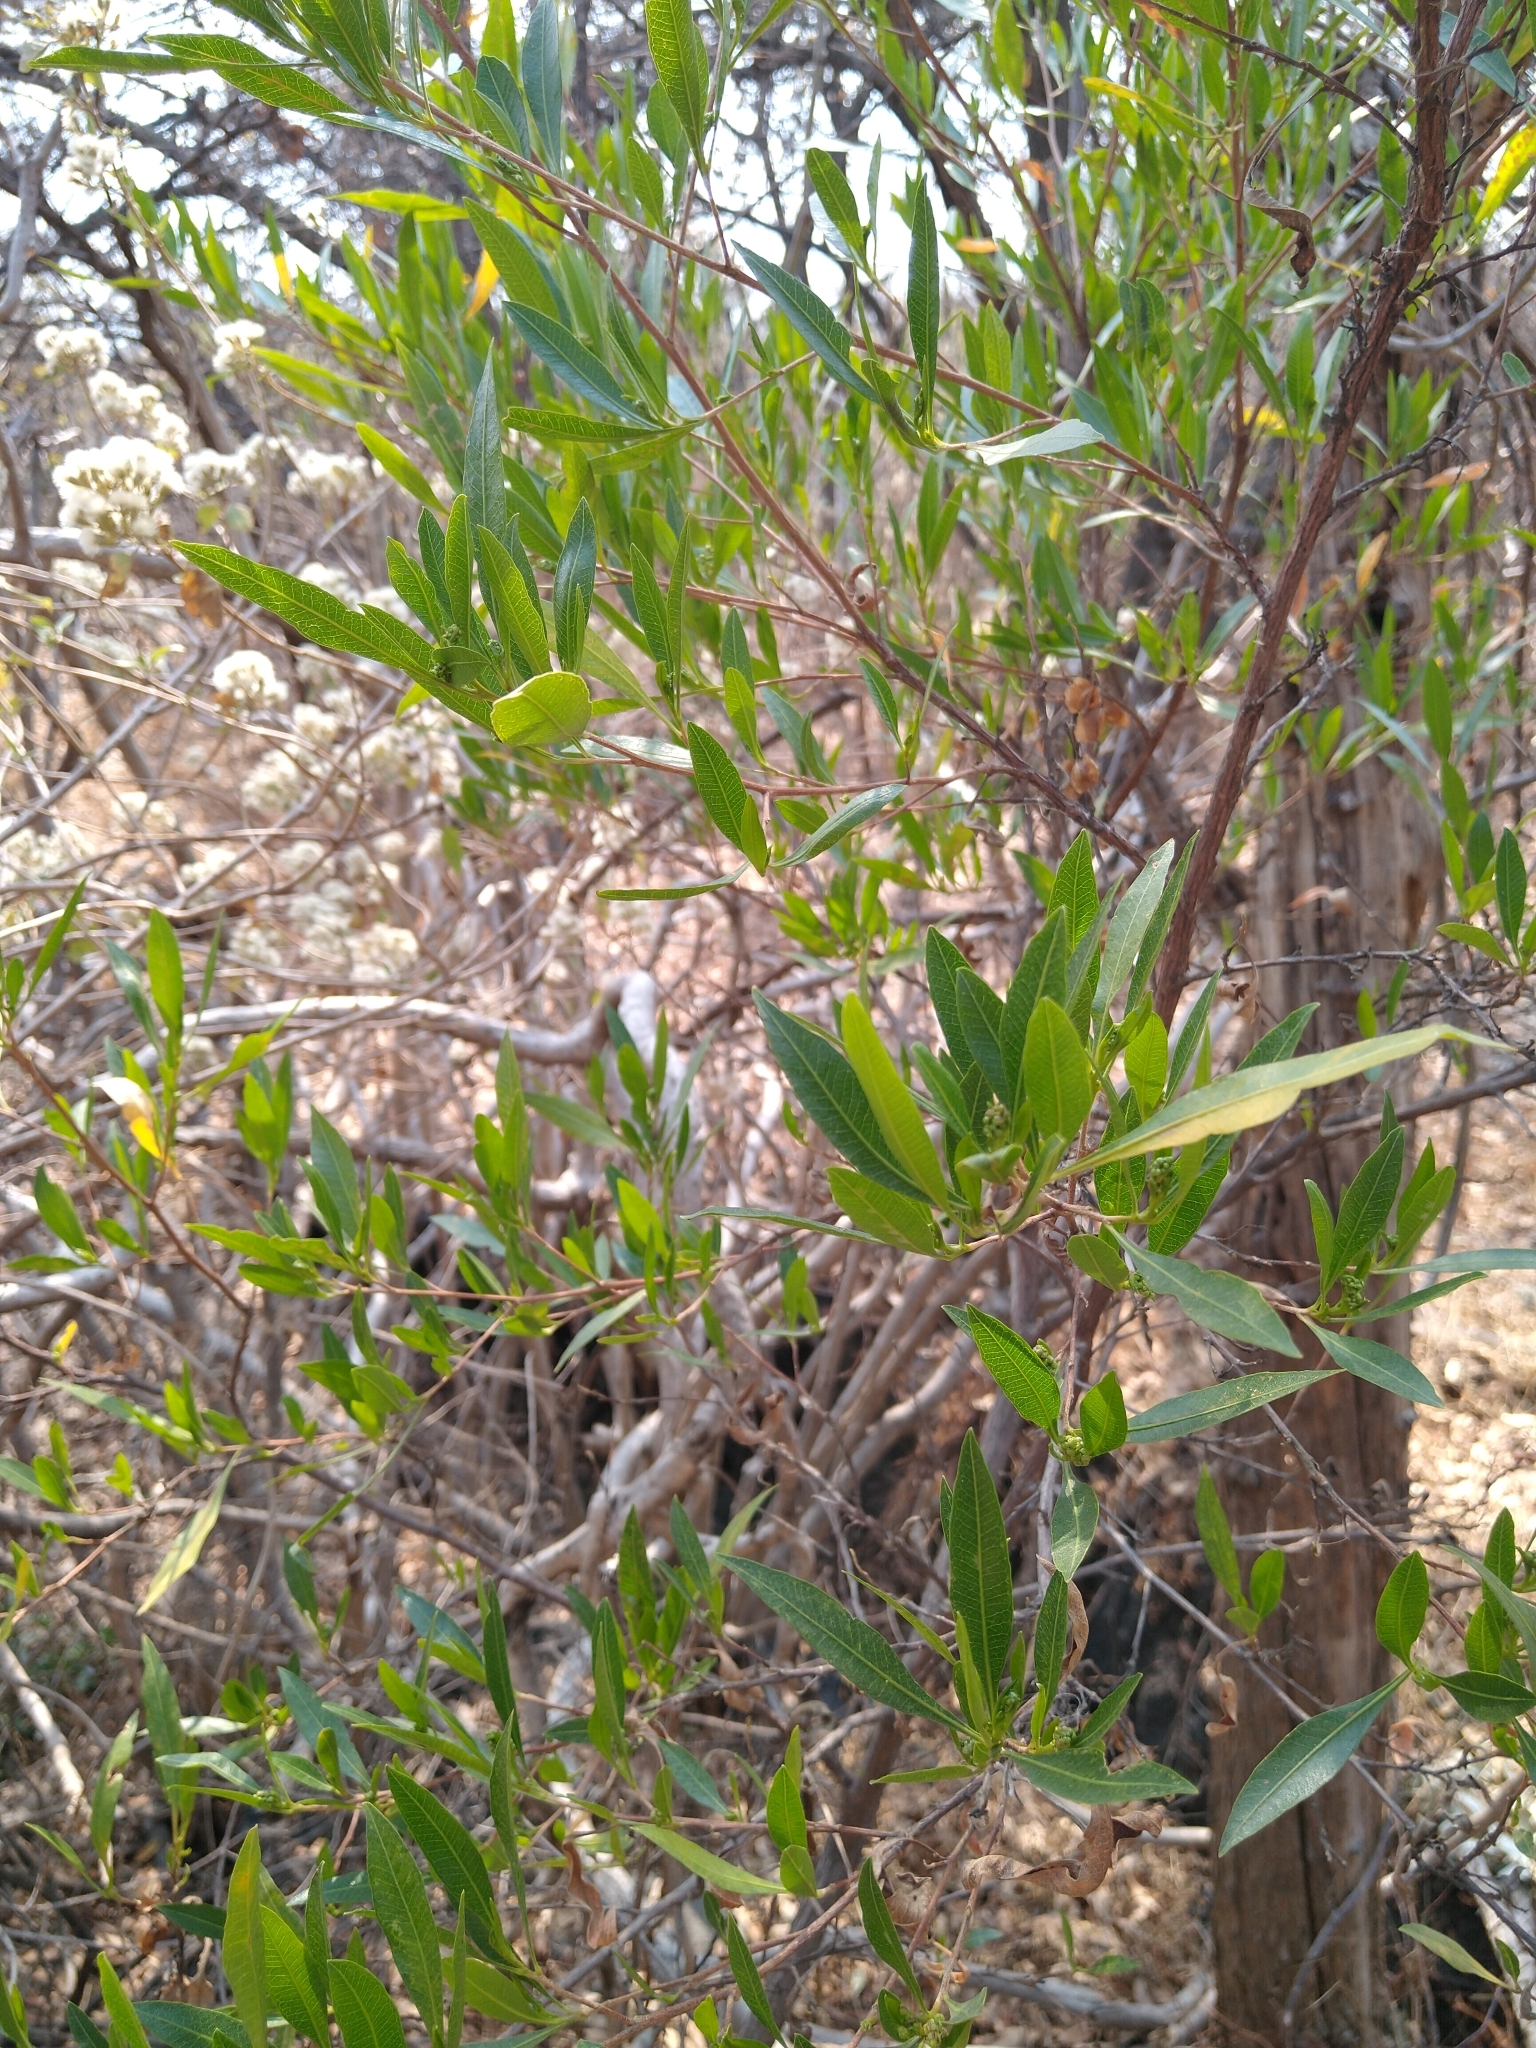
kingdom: Plantae
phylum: Tracheophyta
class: Magnoliopsida
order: Sapindales
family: Sapindaceae
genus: Dodonaea
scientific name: Dodonaea viscosa
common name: Hopbush
